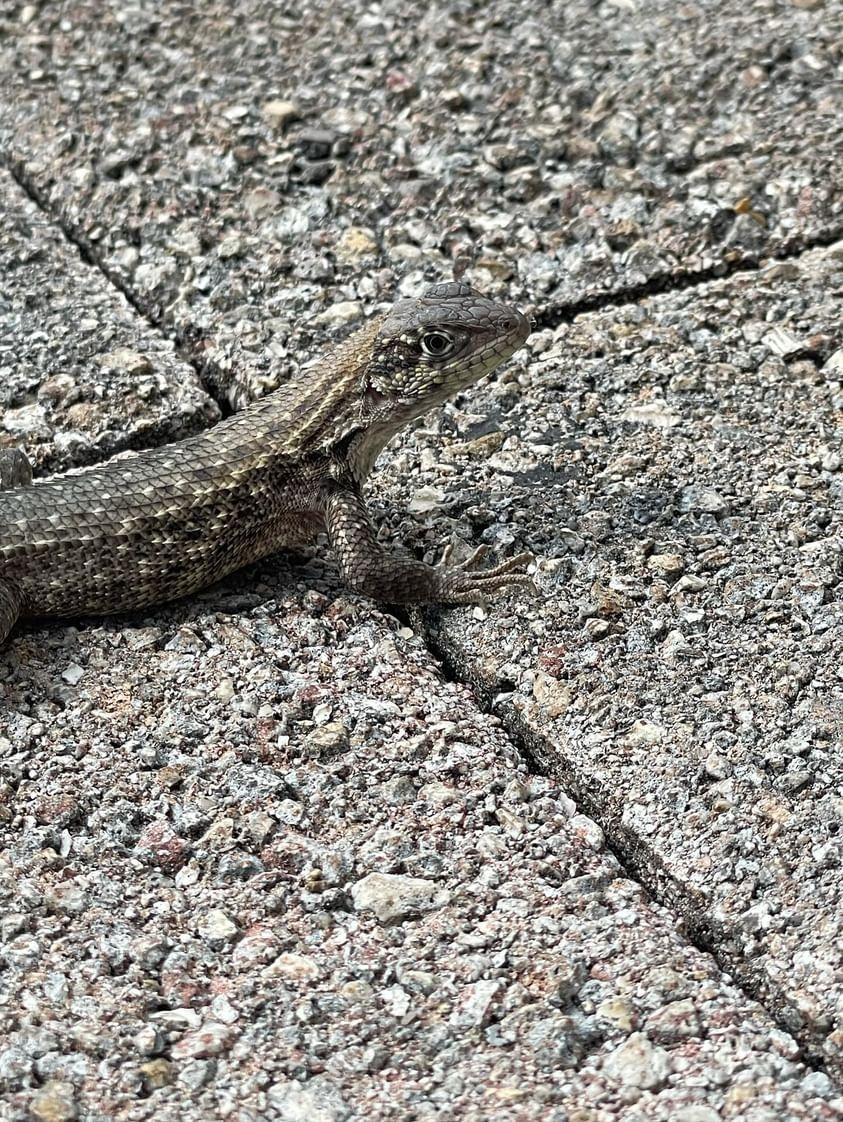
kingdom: Animalia
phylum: Chordata
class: Squamata
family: Leiocephalidae
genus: Leiocephalus
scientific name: Leiocephalus carinatus
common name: Northern curly-tailed lizard
